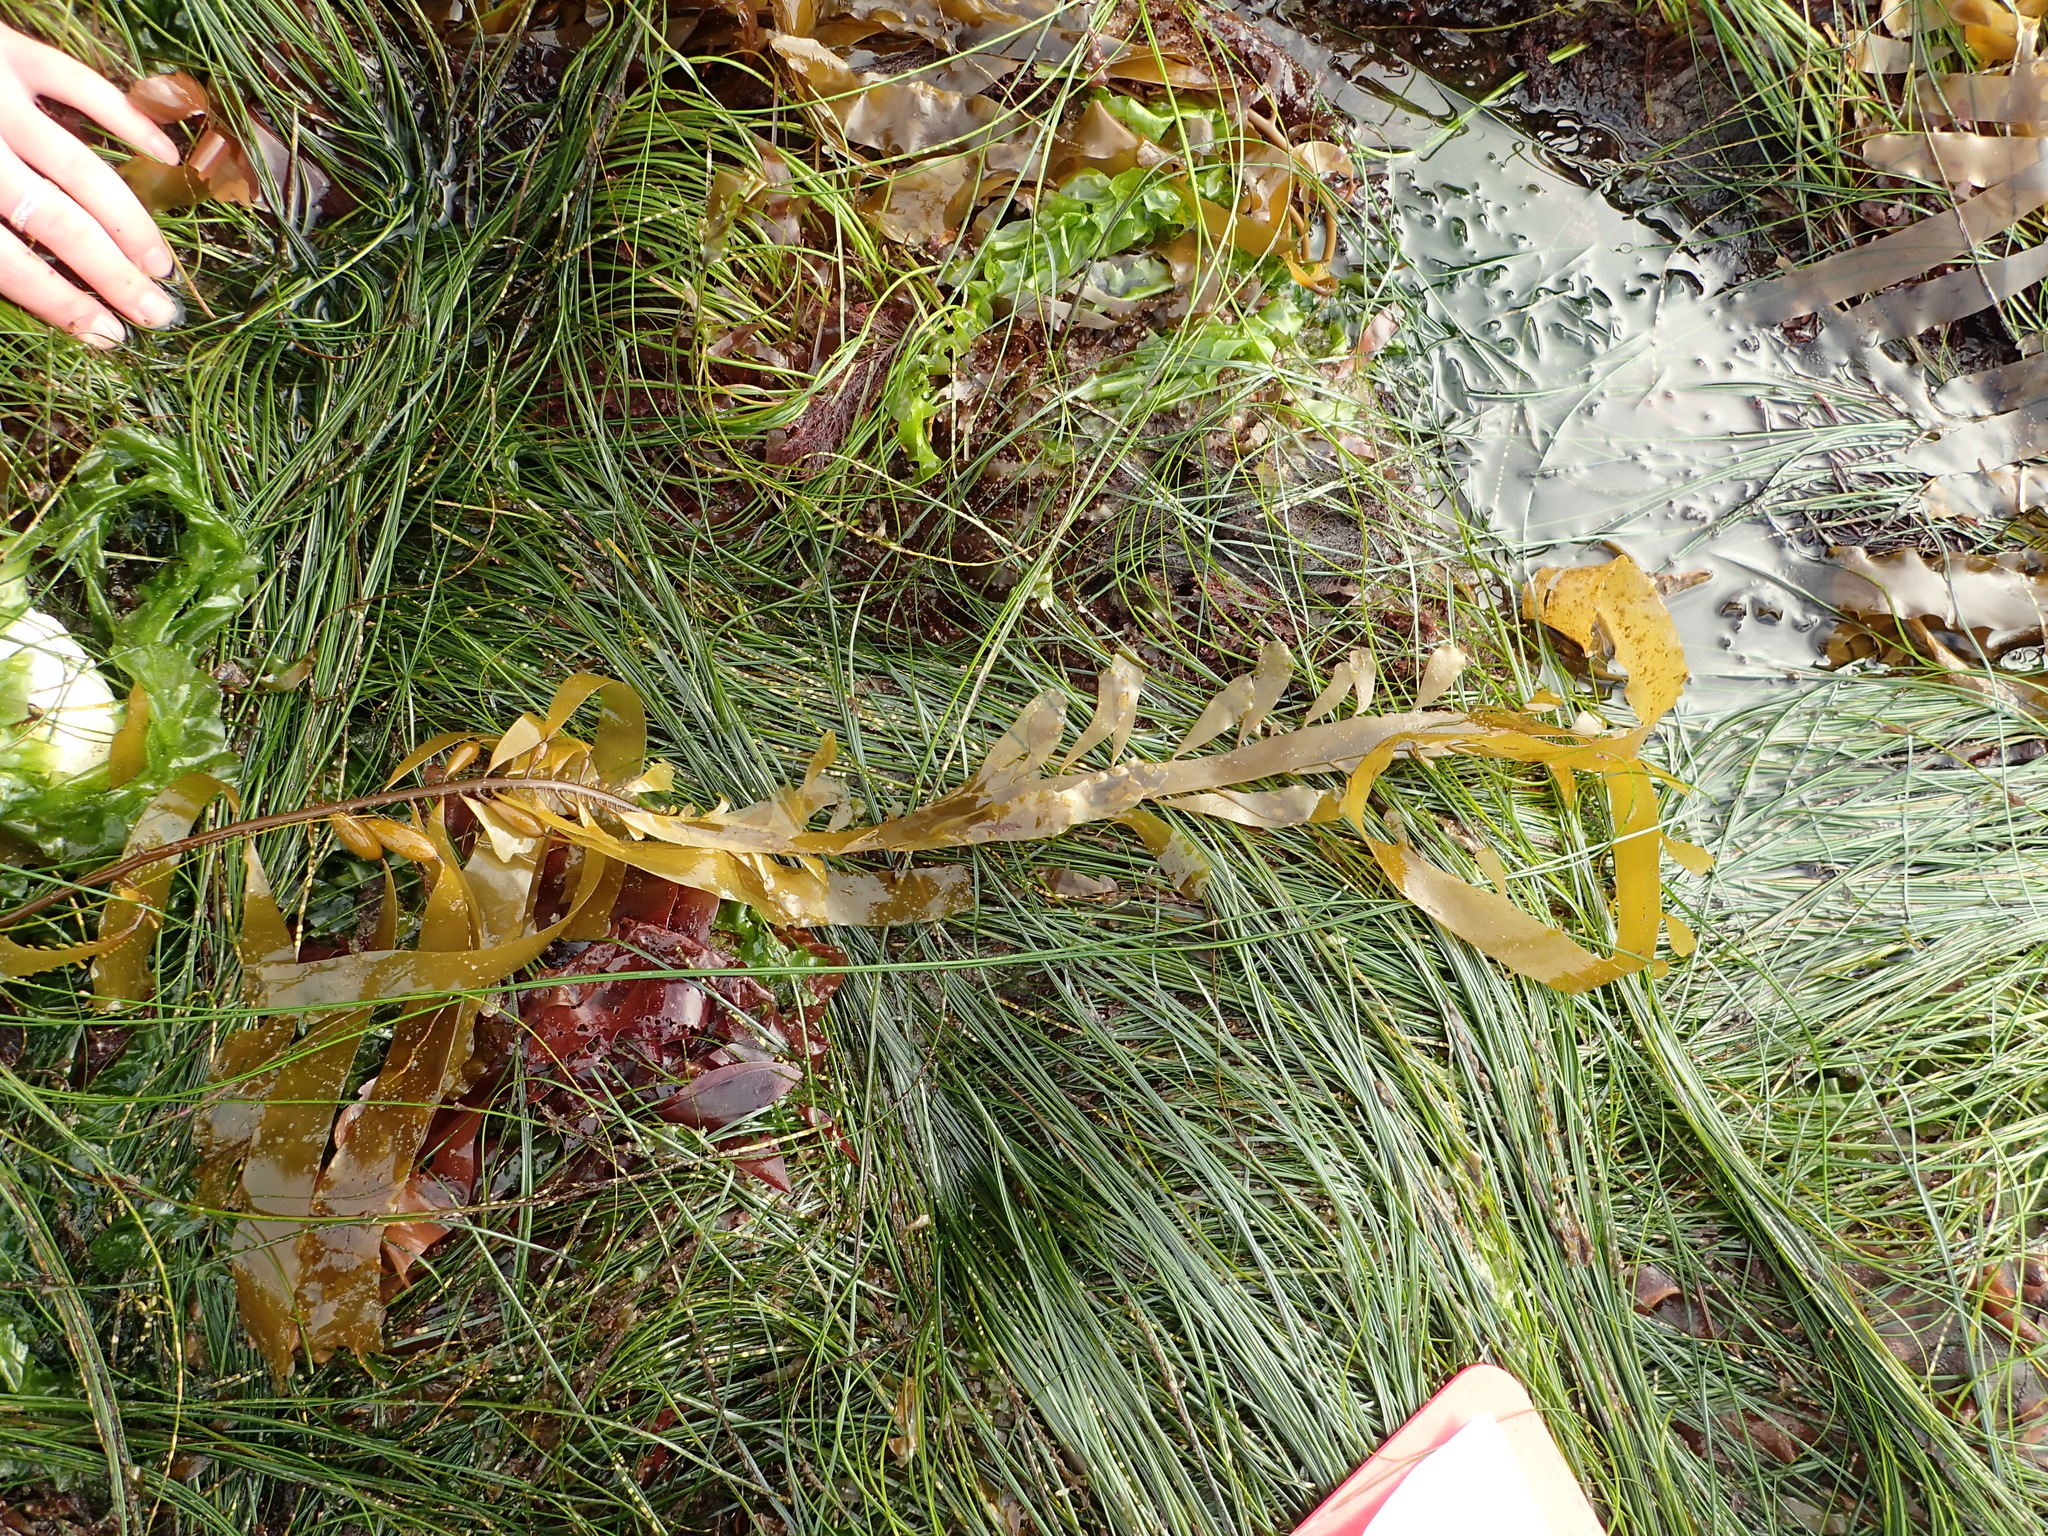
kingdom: Chromista
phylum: Ochrophyta
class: Phaeophyceae
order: Laminariales
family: Lessoniaceae
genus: Egregia
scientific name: Egregia menziesii
